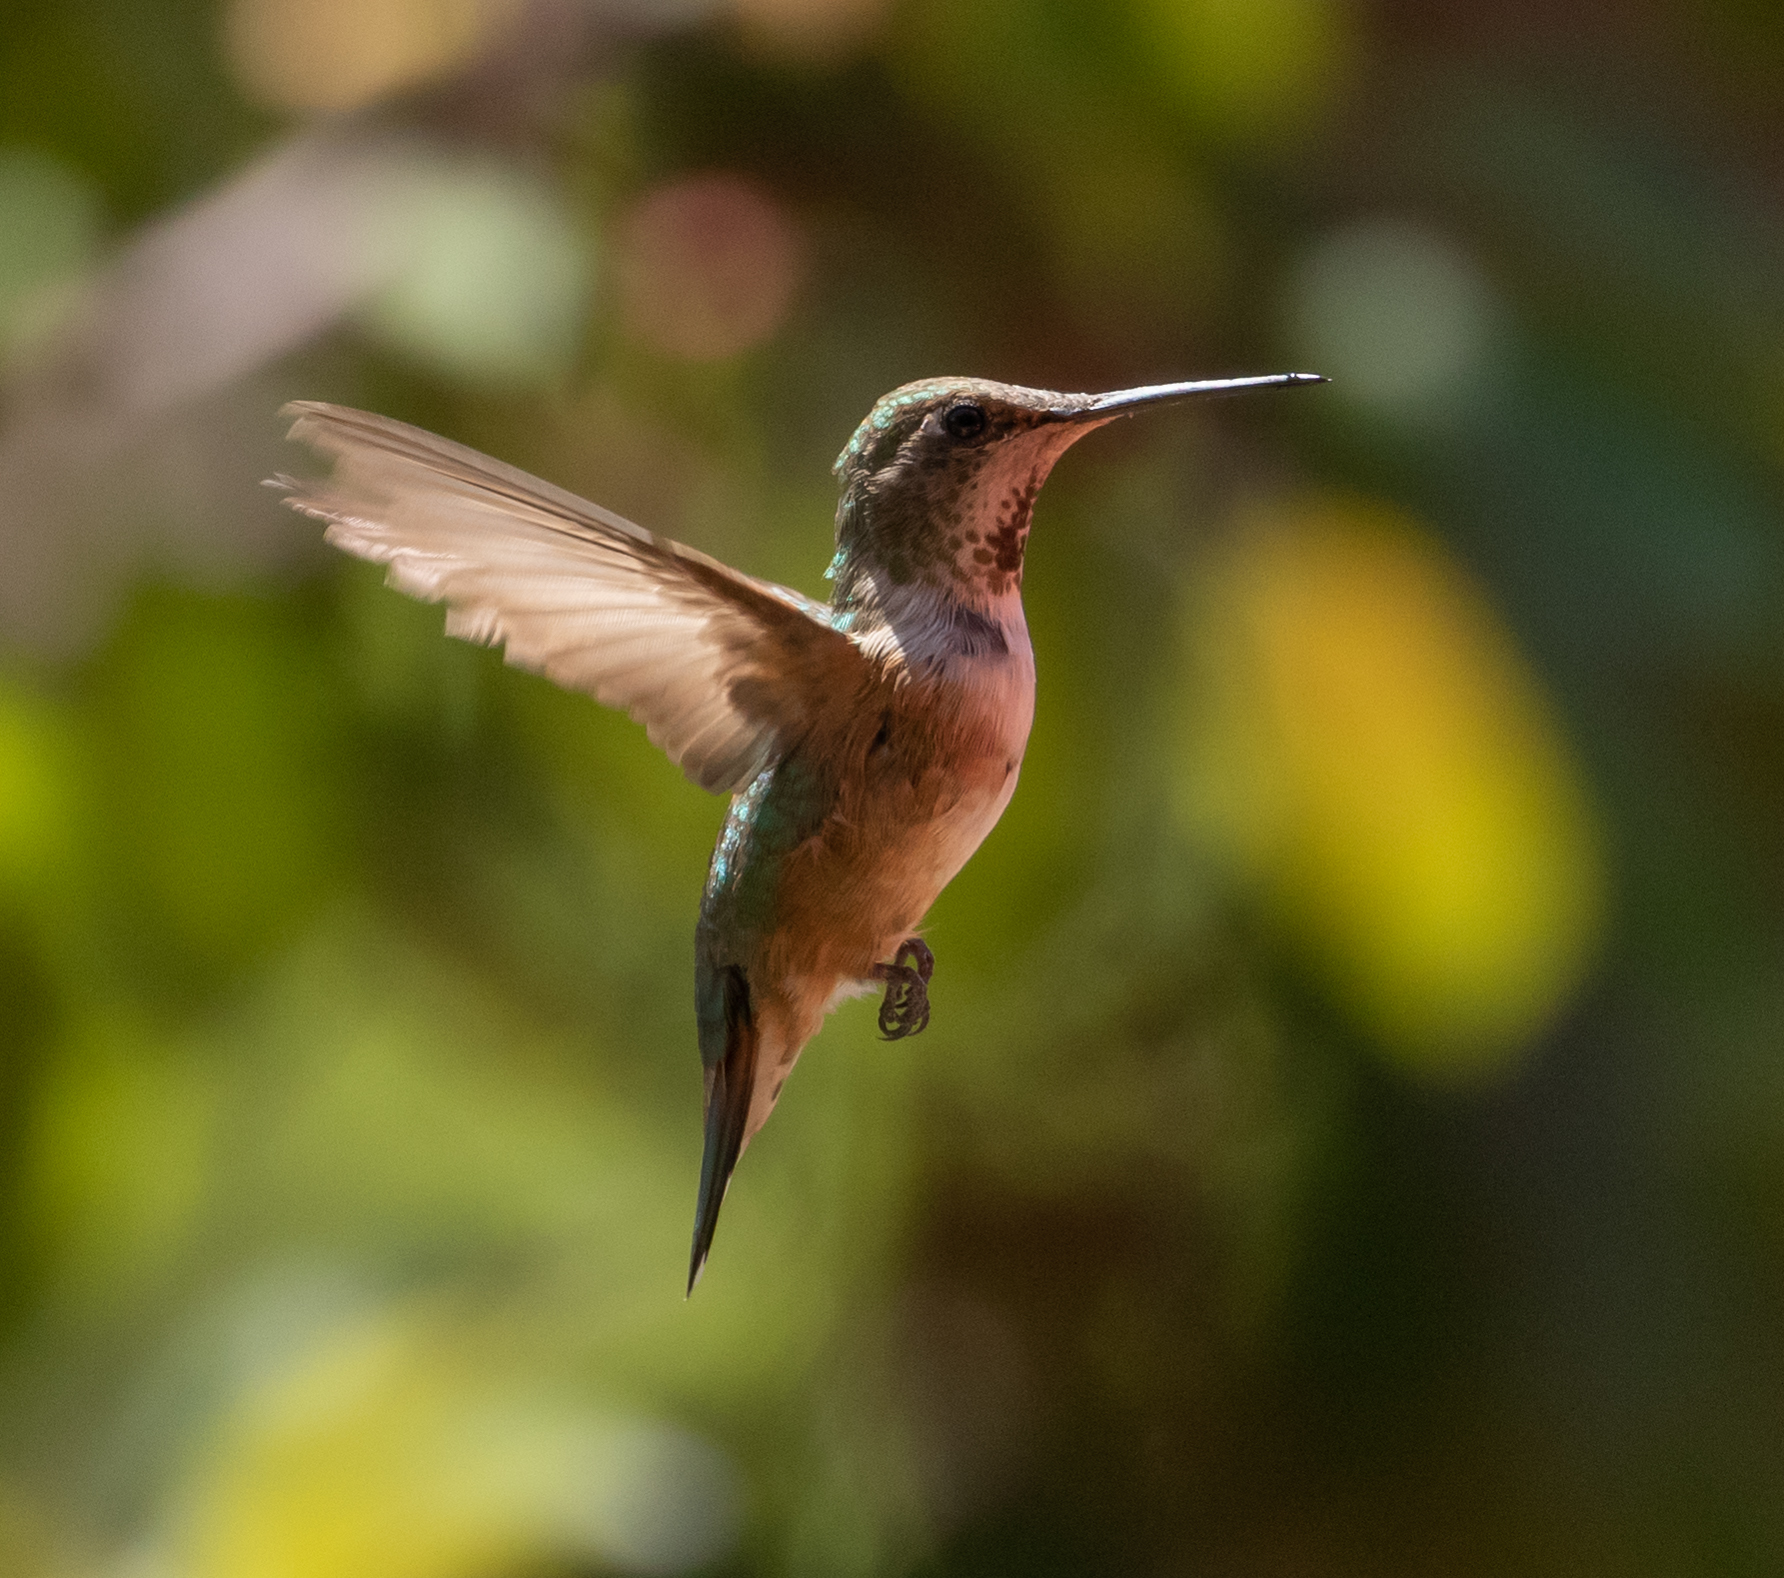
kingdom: Animalia
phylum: Chordata
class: Aves
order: Apodiformes
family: Trochilidae
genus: Selasphorus
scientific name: Selasphorus rufus
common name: Rufous hummingbird
